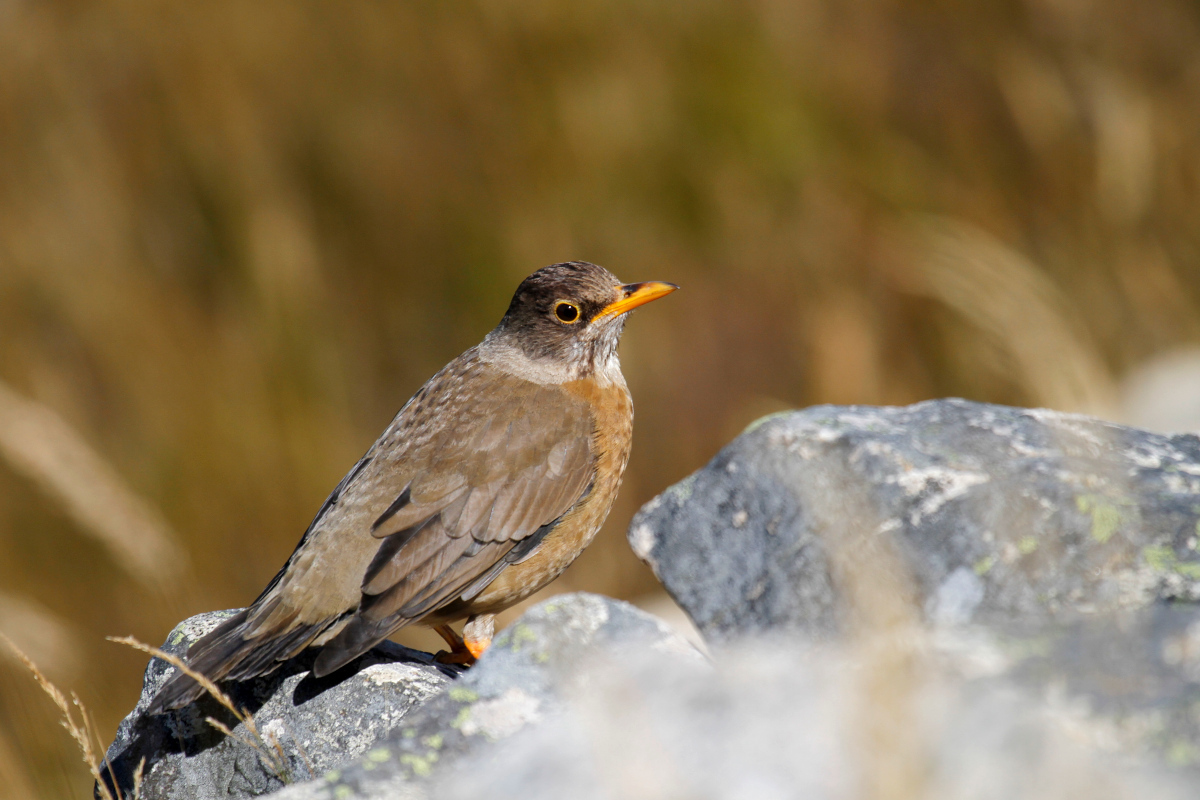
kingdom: Animalia
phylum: Chordata
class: Aves
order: Passeriformes
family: Turdidae
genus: Turdus
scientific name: Turdus falcklandii
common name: Austral thrush
